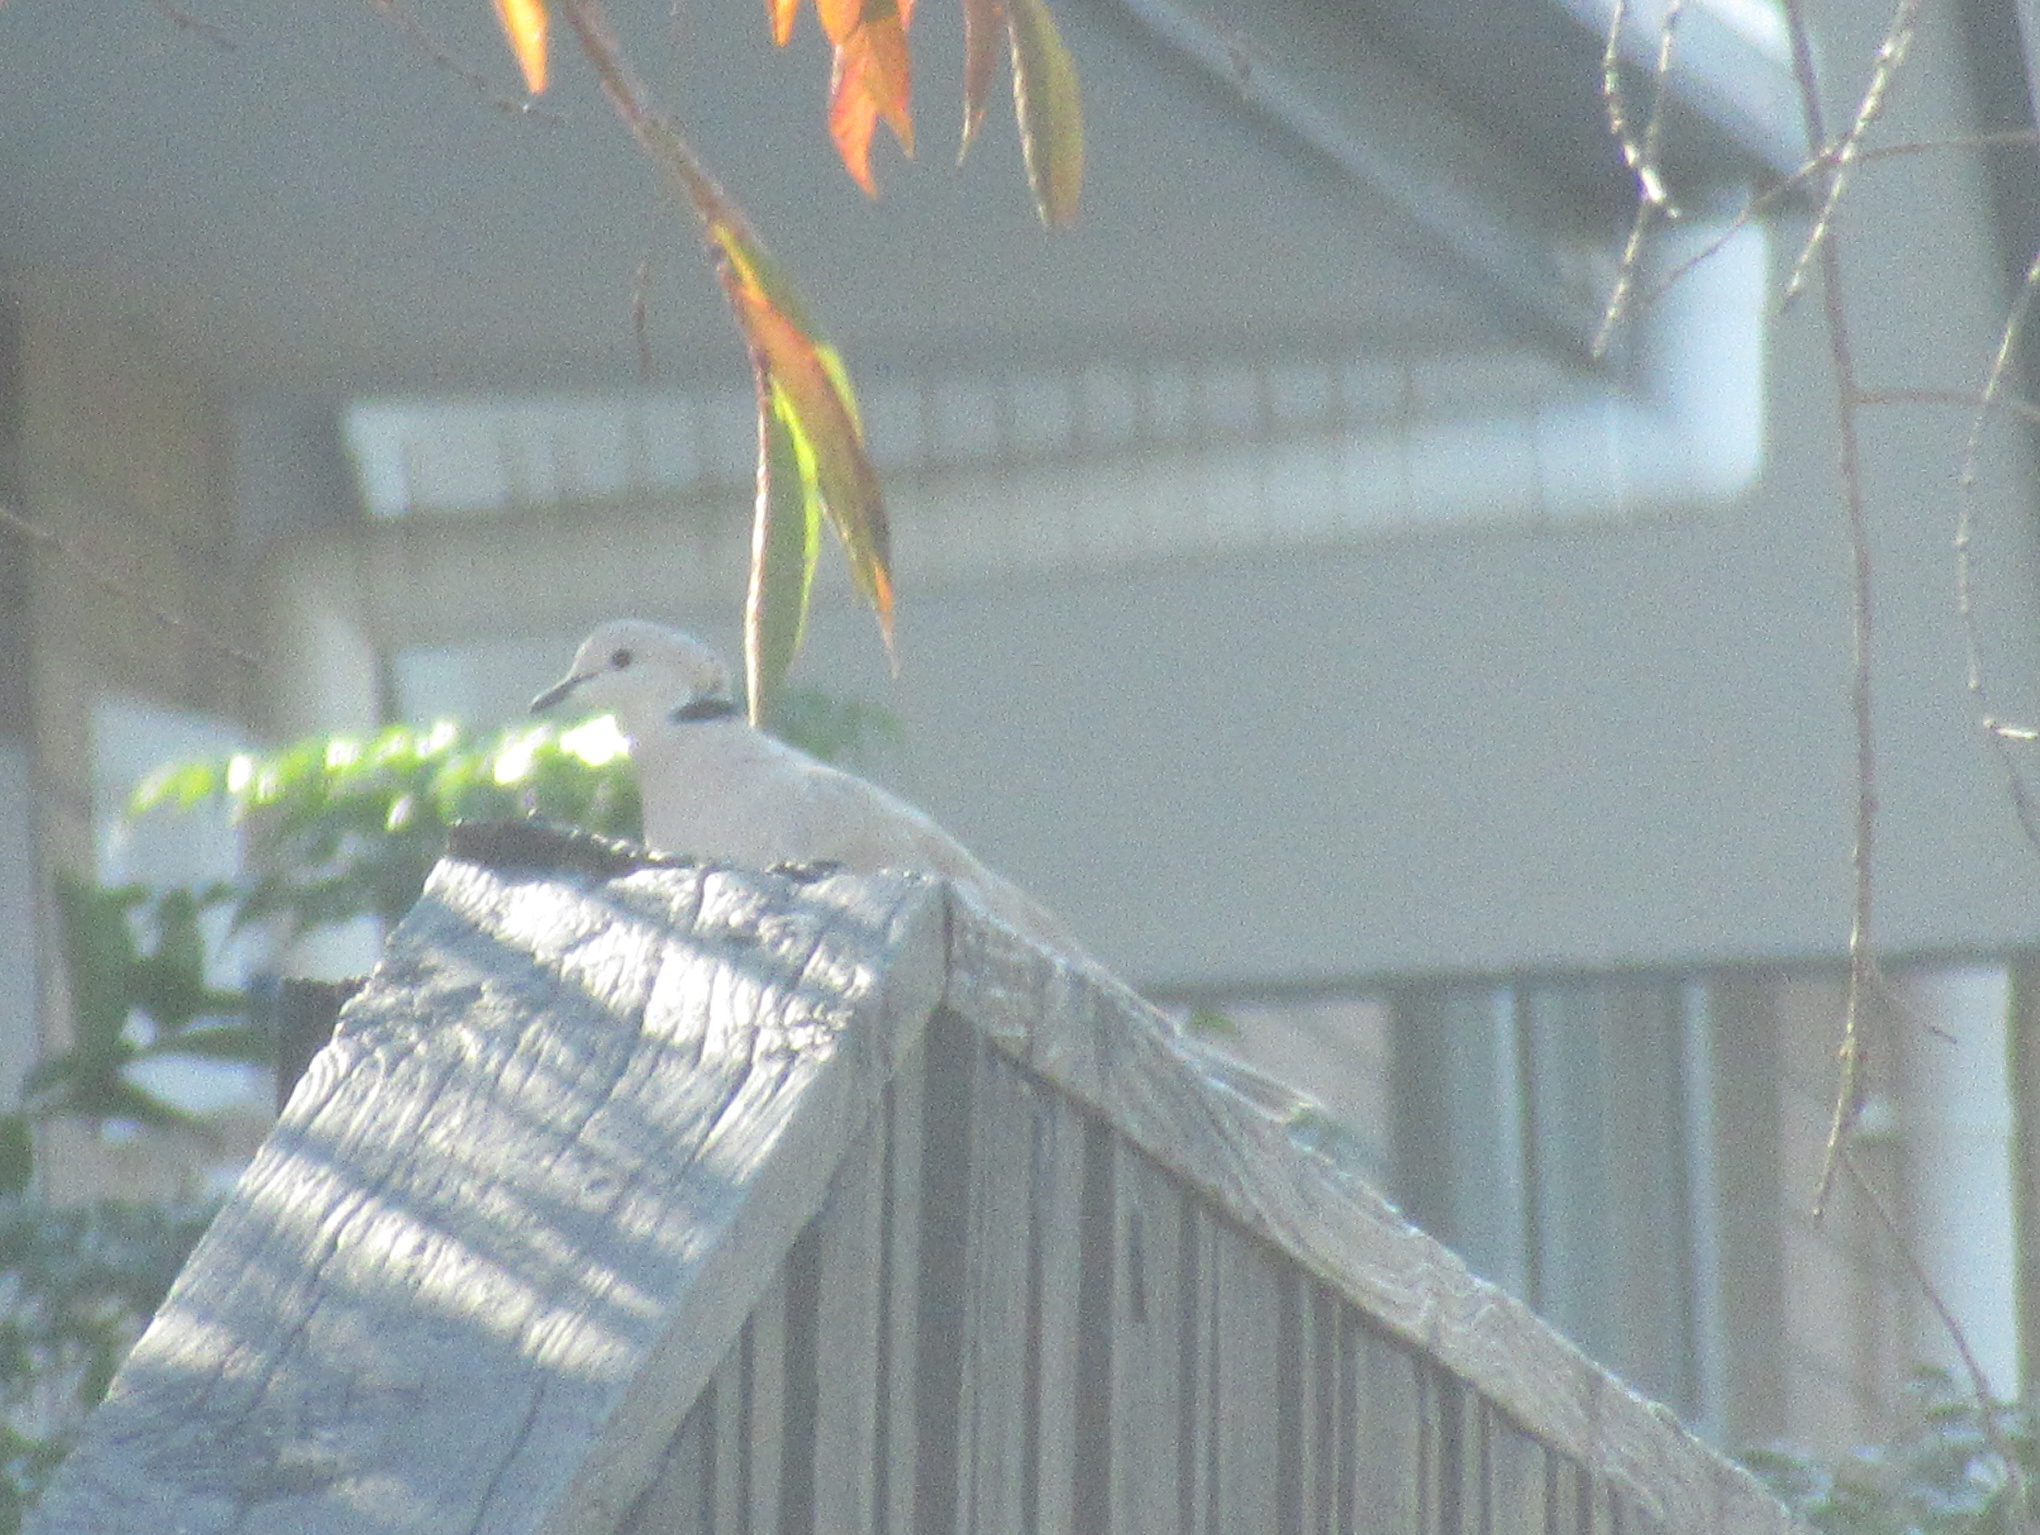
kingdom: Animalia
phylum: Chordata
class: Aves
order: Columbiformes
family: Columbidae
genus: Streptopelia
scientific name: Streptopelia roseogrisea
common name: African collared dove
